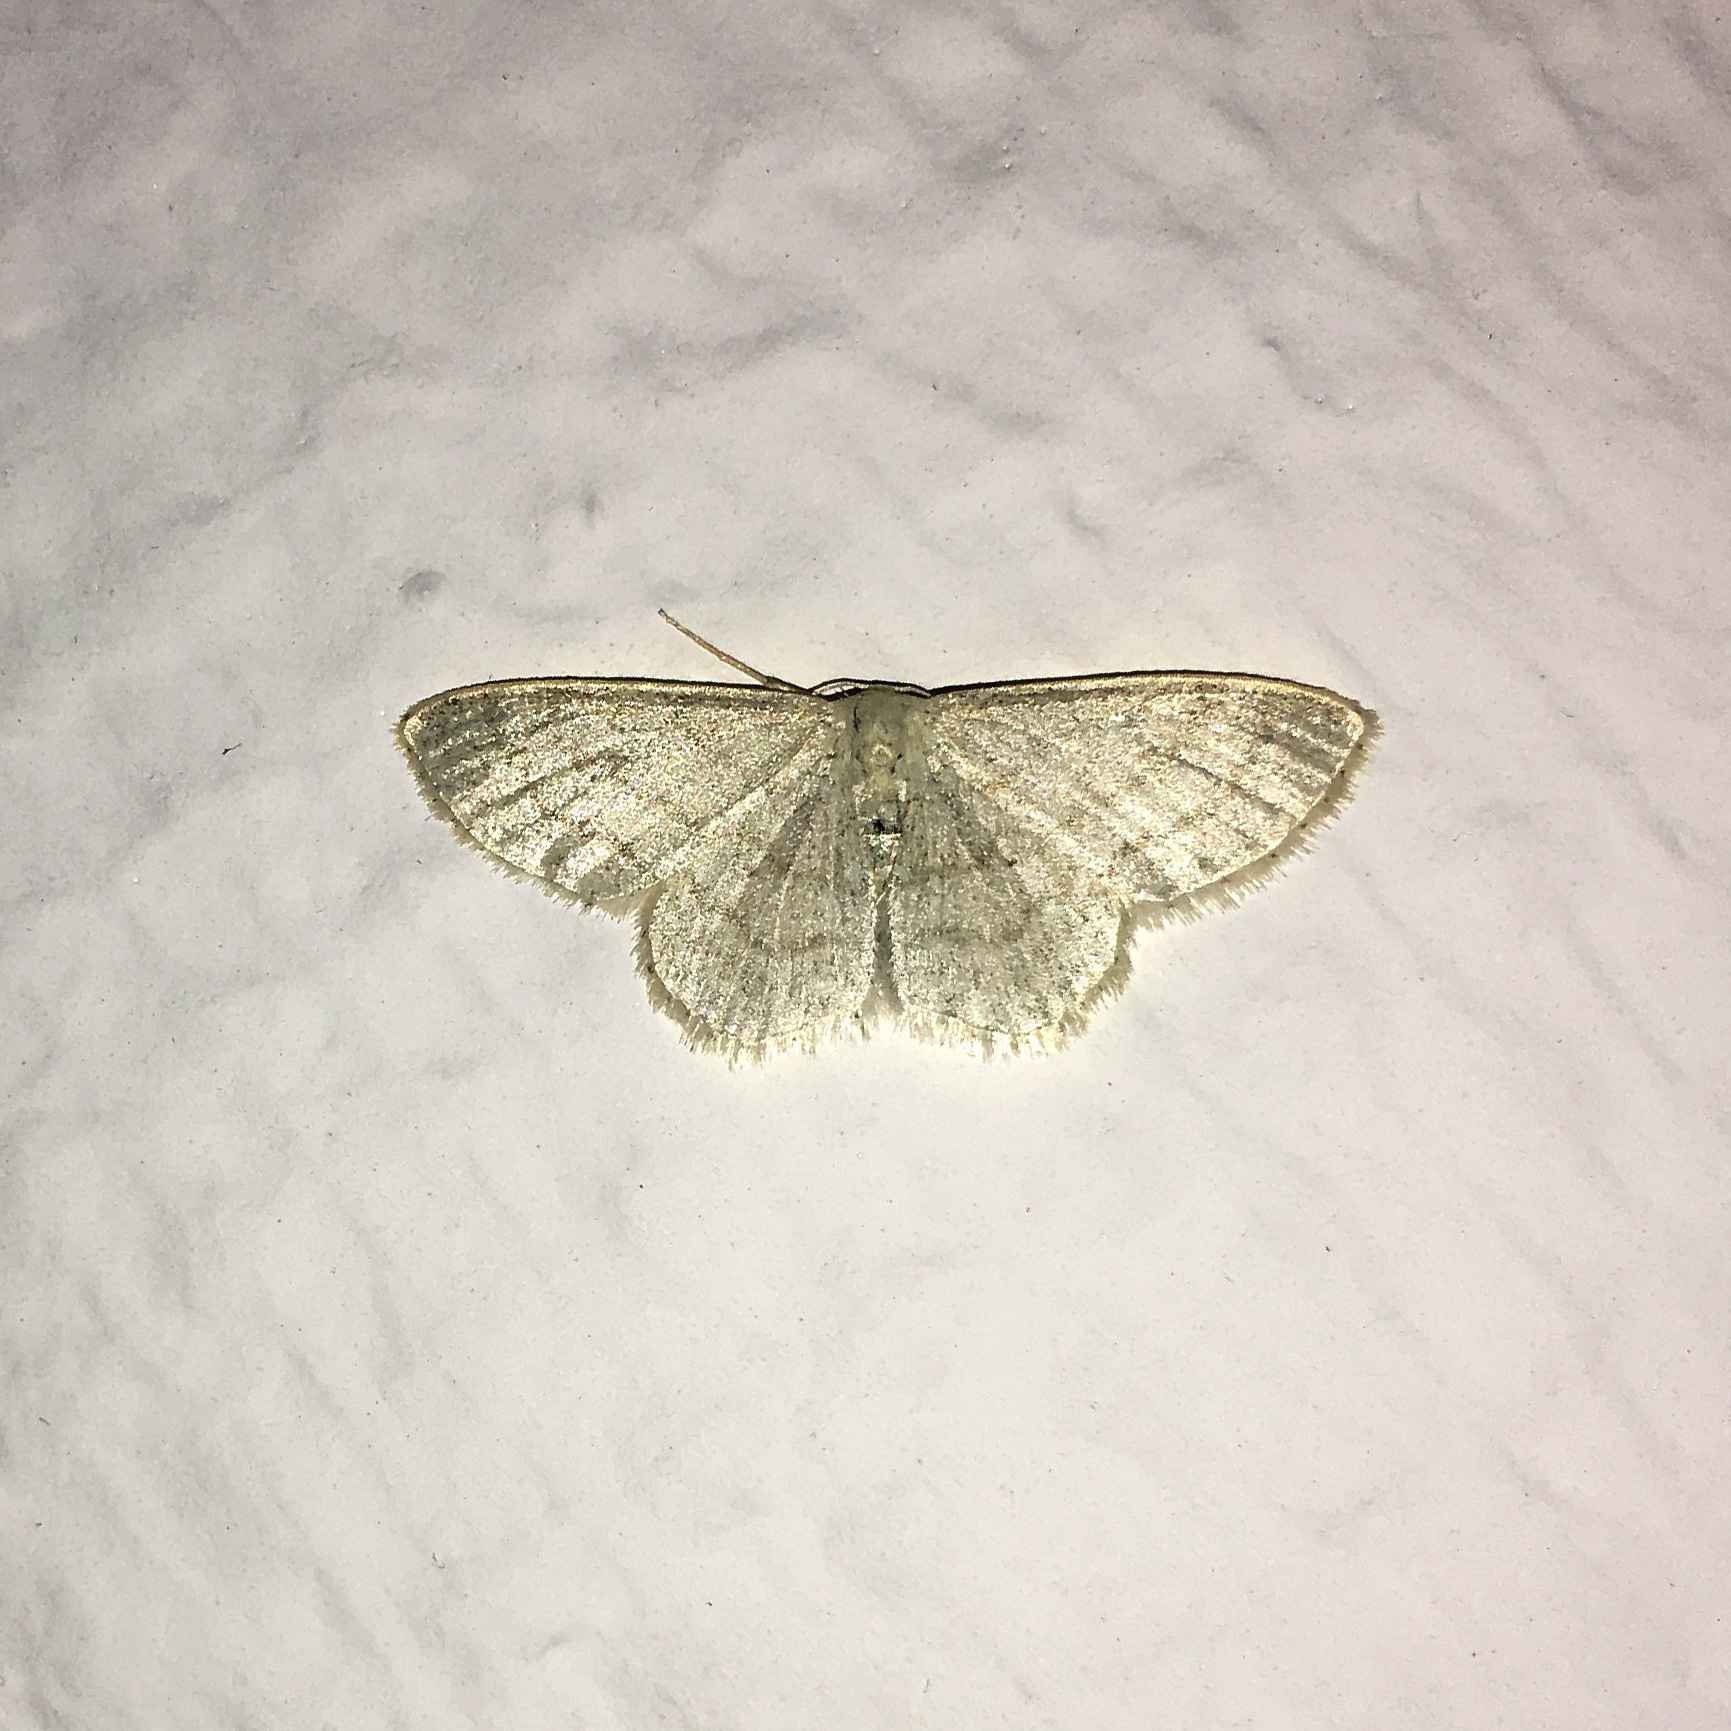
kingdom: Animalia
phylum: Arthropoda
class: Insecta
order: Lepidoptera
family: Geometridae
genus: Idaea
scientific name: Idaea subsericeata
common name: Satin wave
